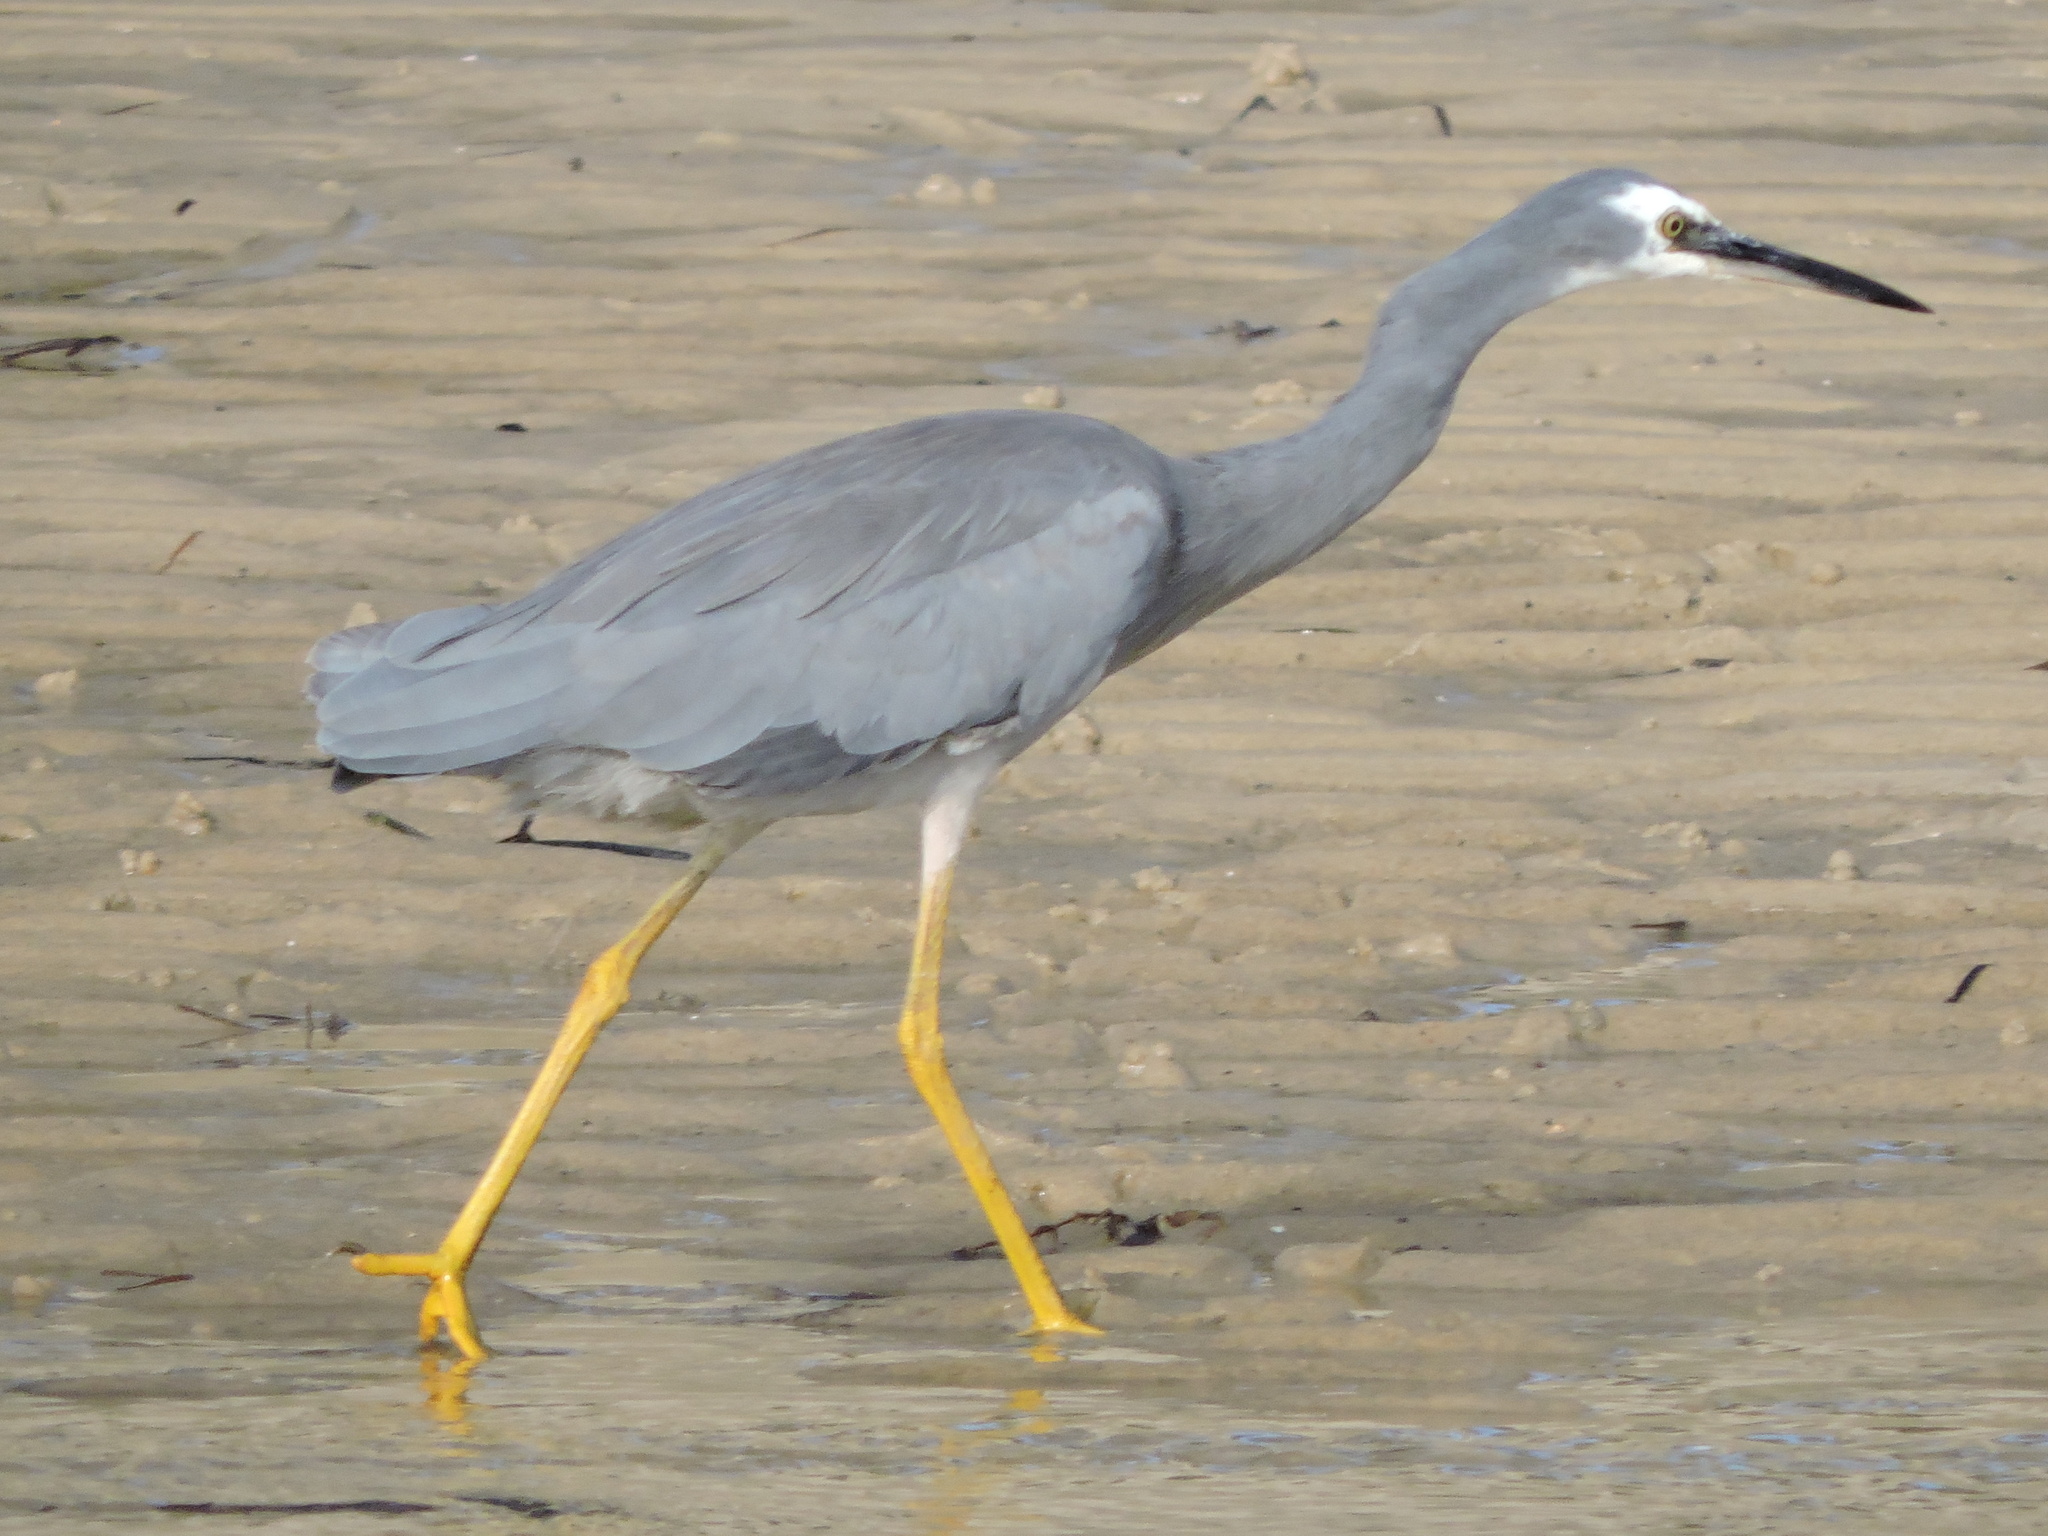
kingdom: Animalia
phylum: Chordata
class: Aves
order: Pelecaniformes
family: Ardeidae
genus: Egretta
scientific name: Egretta novaehollandiae
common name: White-faced heron
